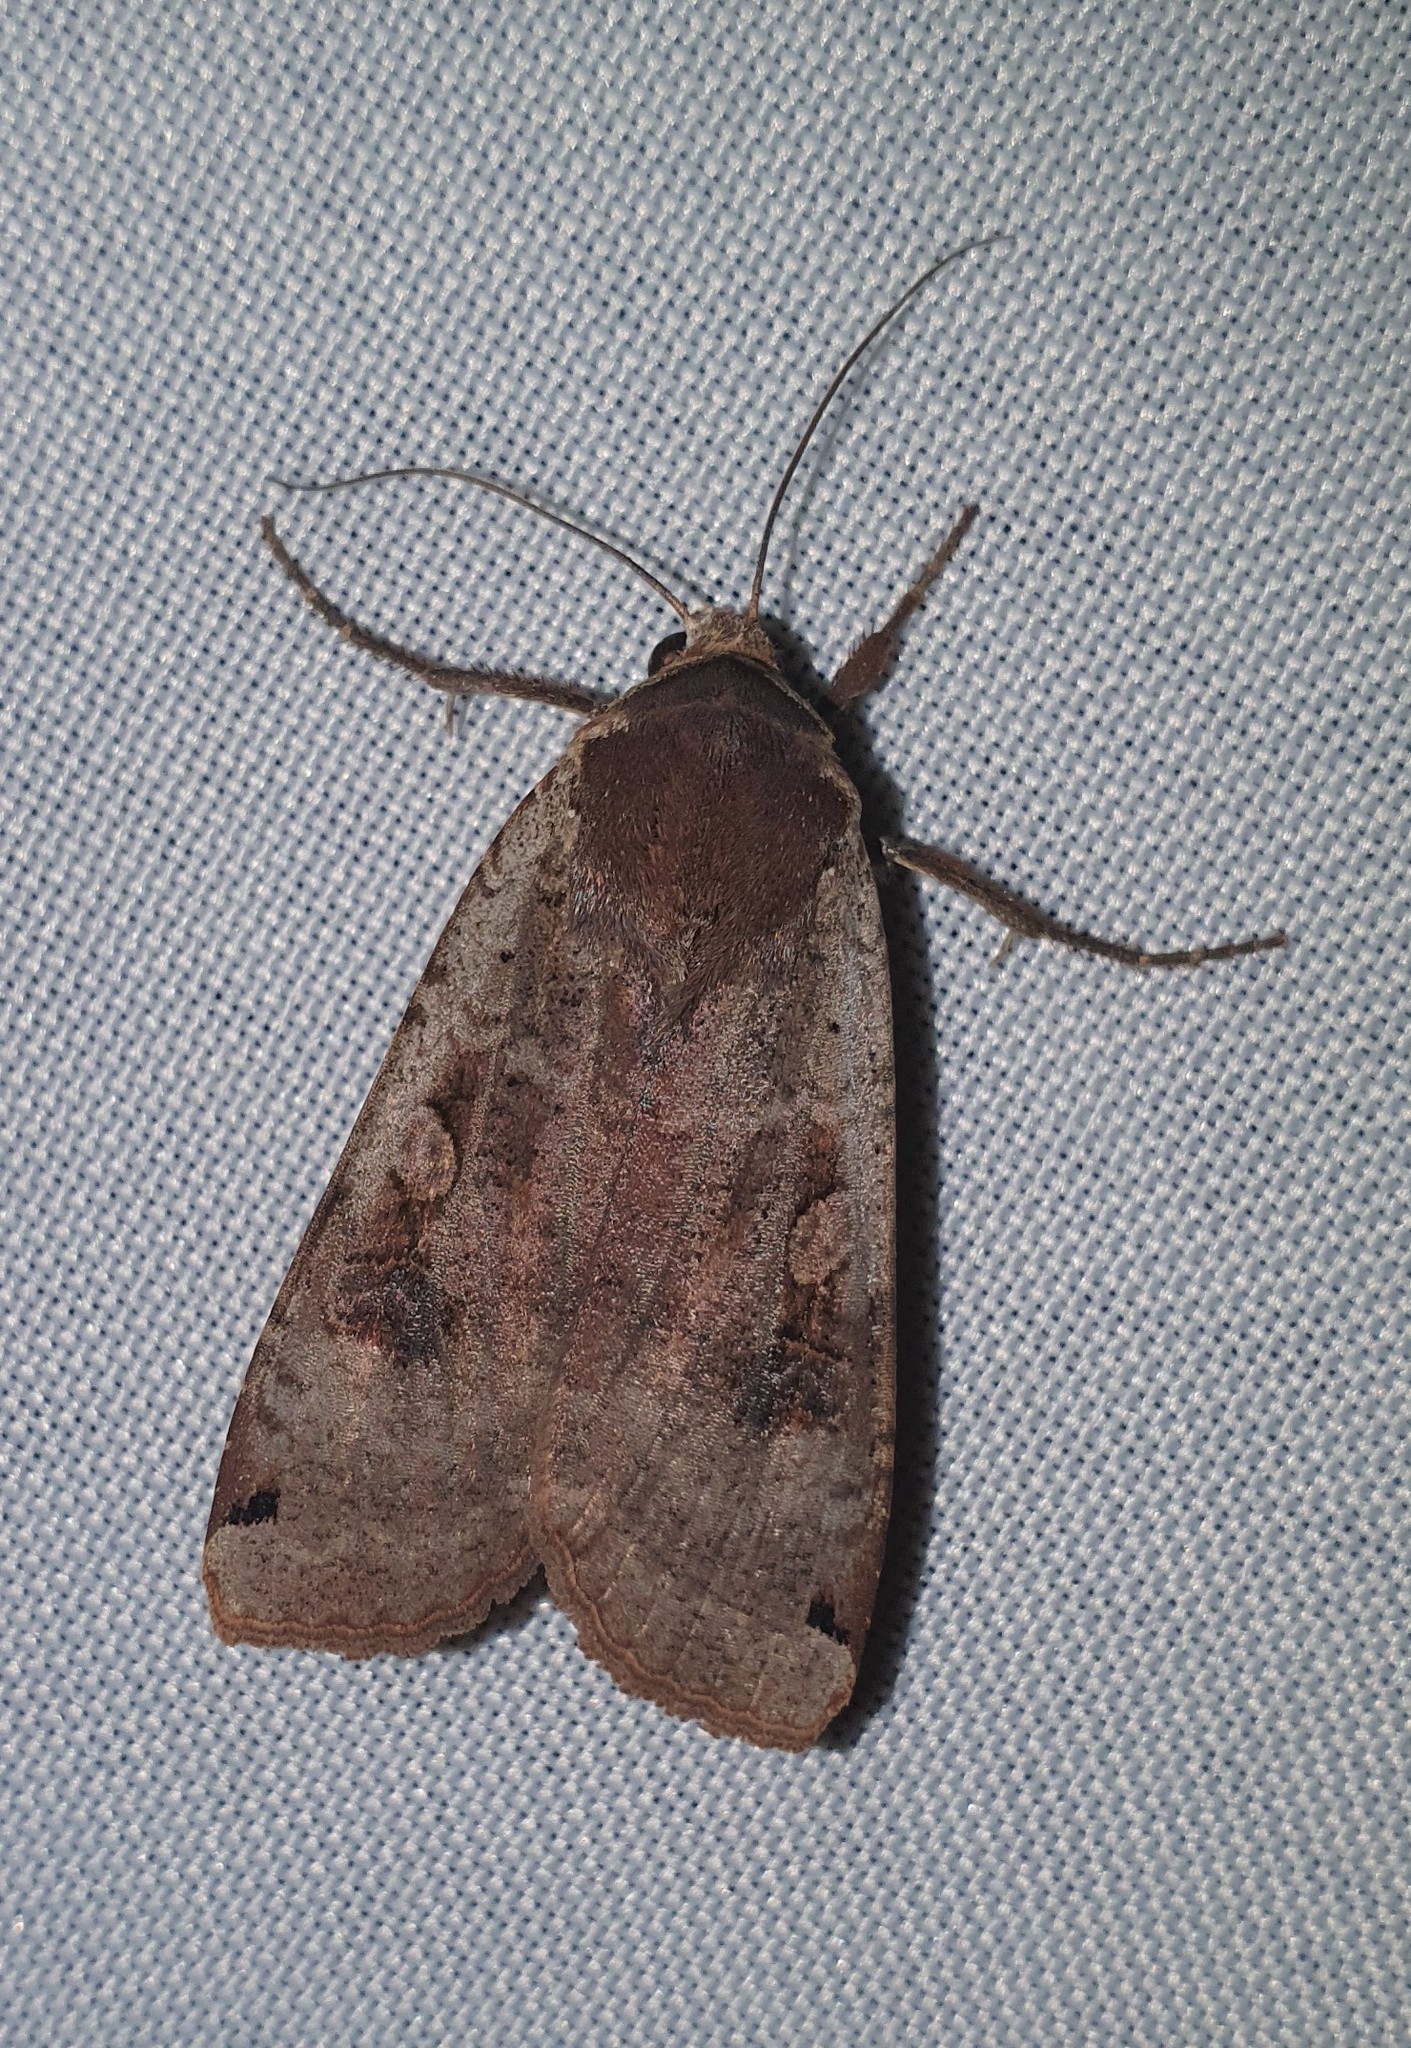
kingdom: Animalia
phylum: Arthropoda
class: Insecta
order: Lepidoptera
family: Noctuidae
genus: Noctua
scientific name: Noctua pronuba
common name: Large yellow underwing
